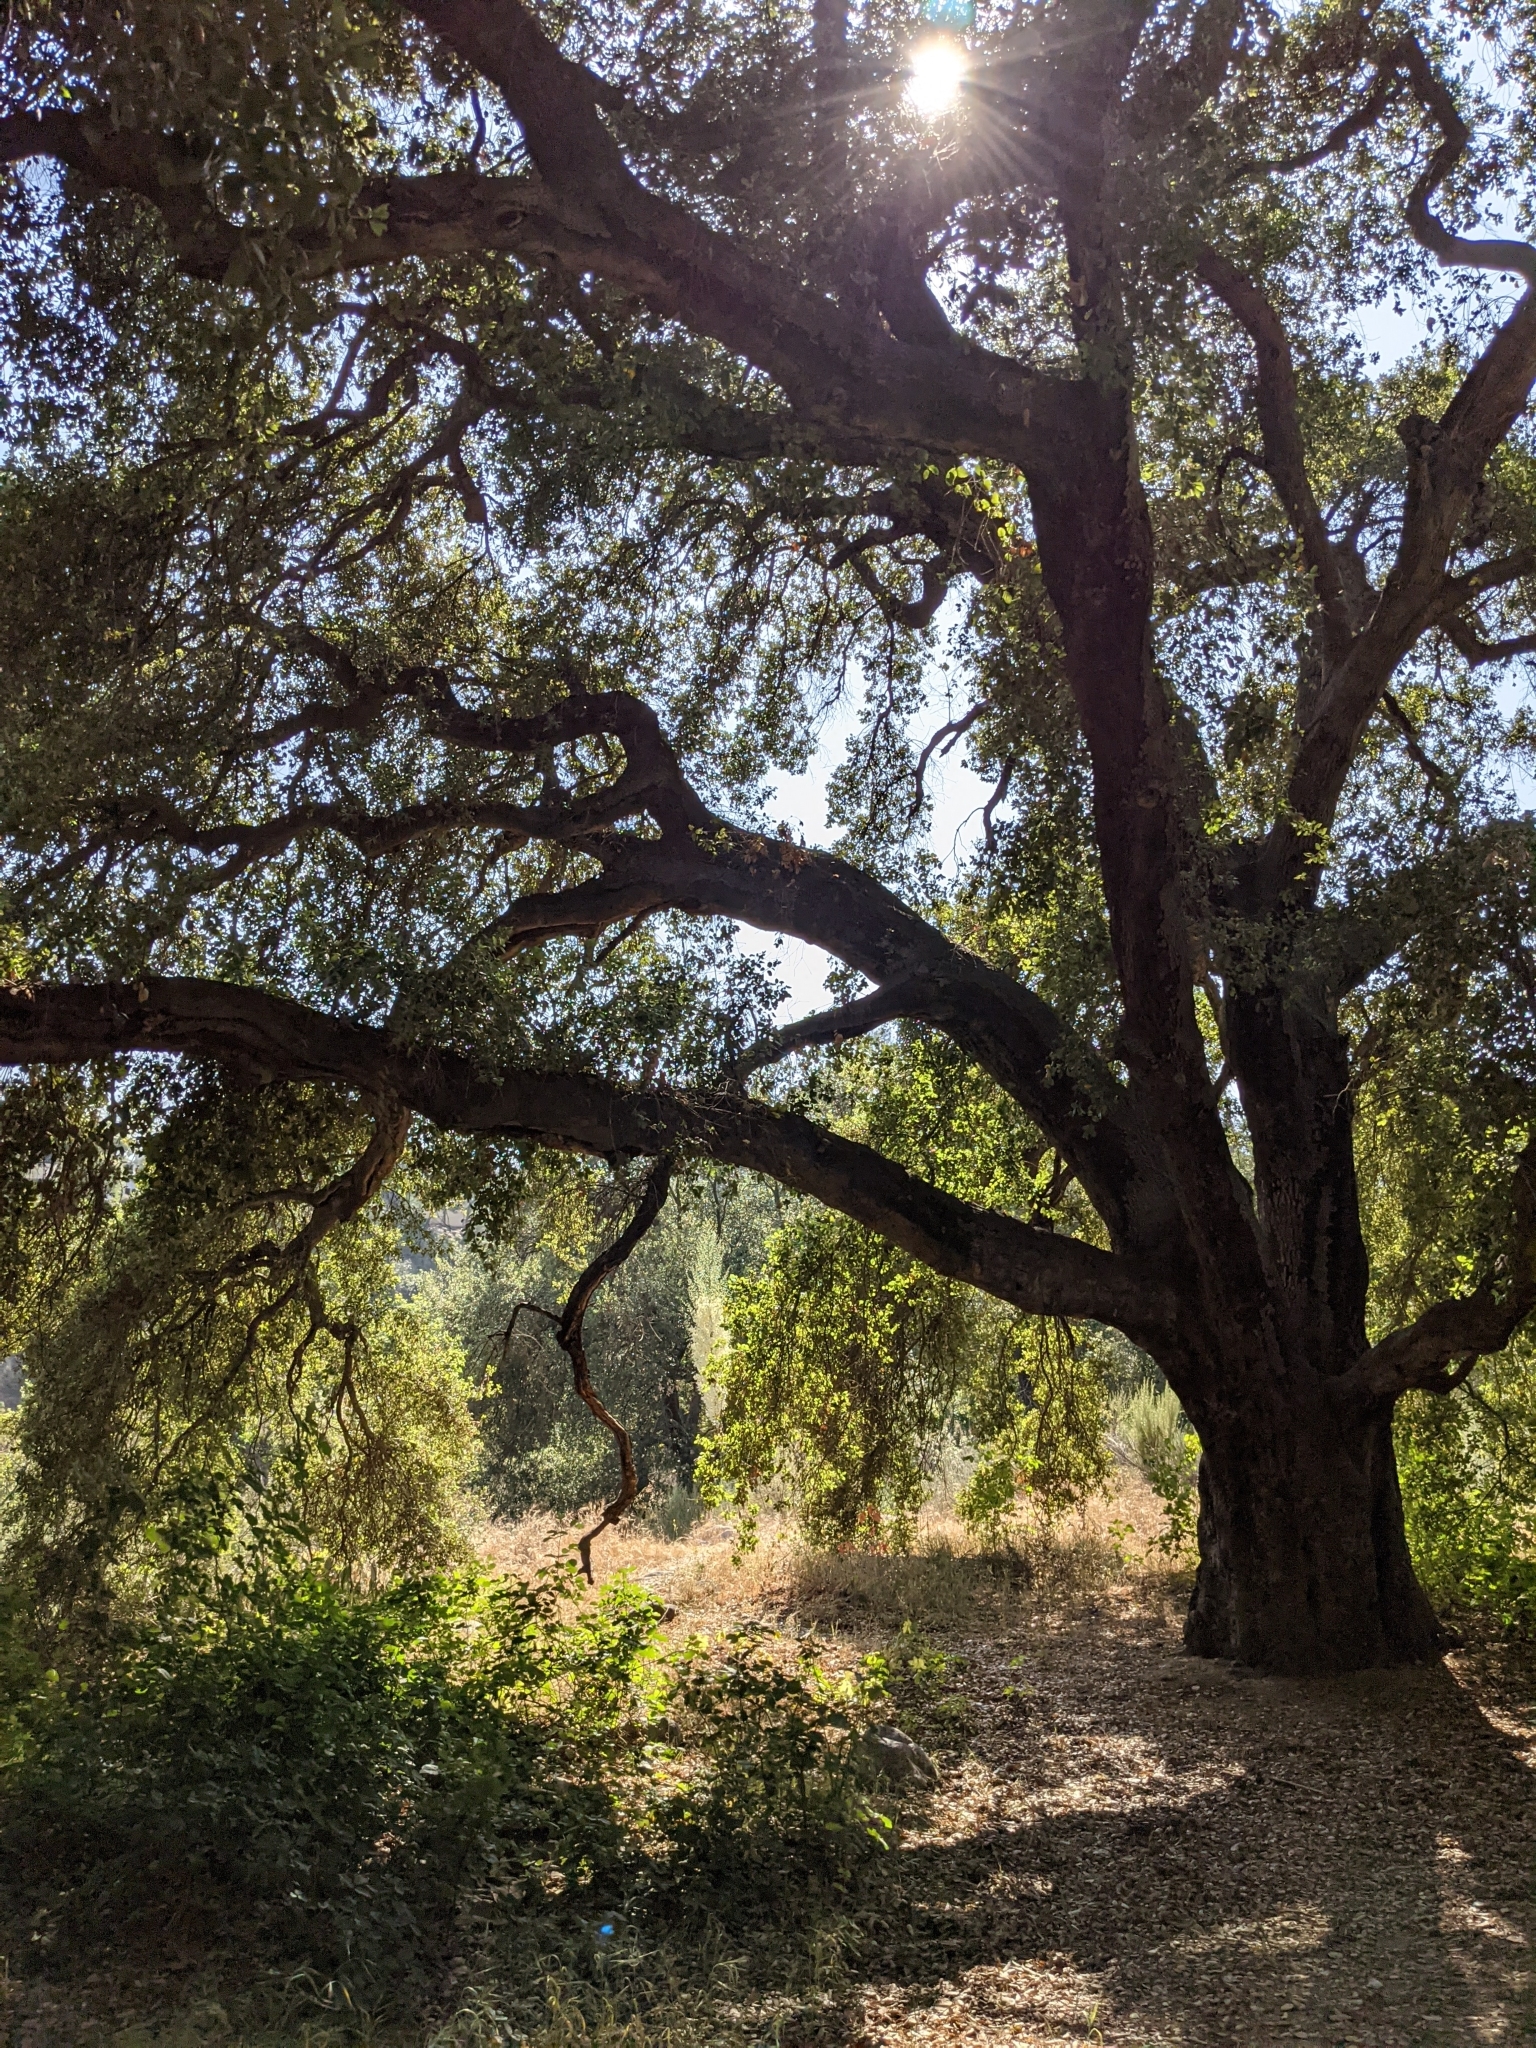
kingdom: Plantae
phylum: Tracheophyta
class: Magnoliopsida
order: Fagales
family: Fagaceae
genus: Quercus
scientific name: Quercus agrifolia
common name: California live oak
